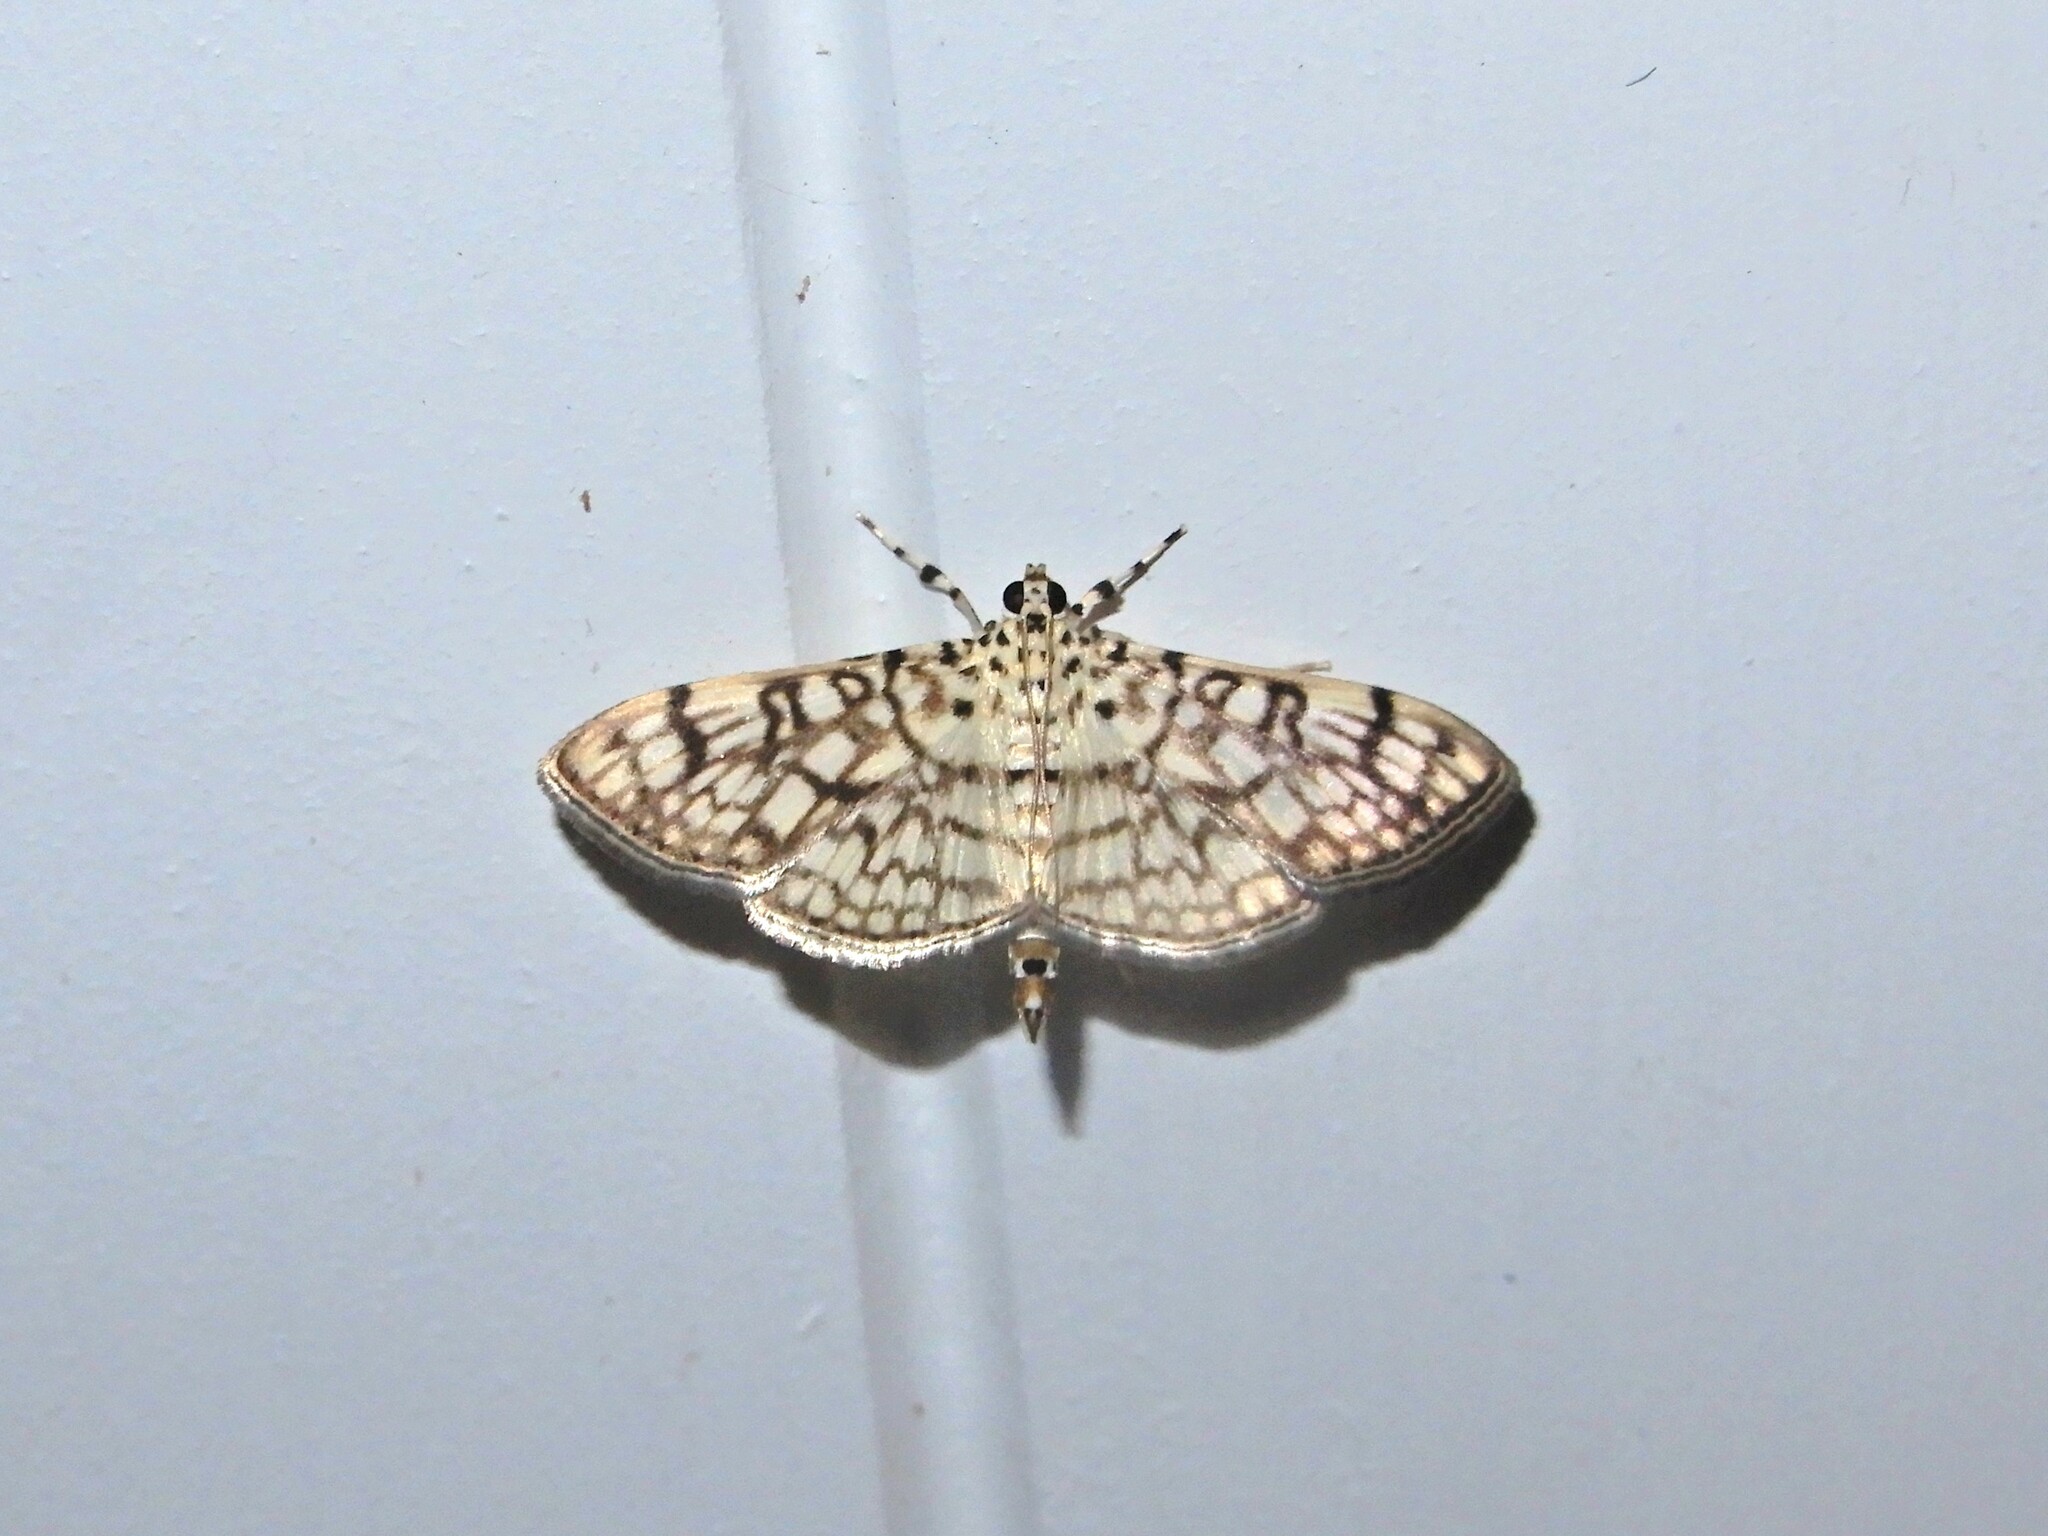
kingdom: Animalia
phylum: Arthropoda
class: Insecta
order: Lepidoptera
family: Crambidae
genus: Haritalodes
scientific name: Haritalodes derogata
